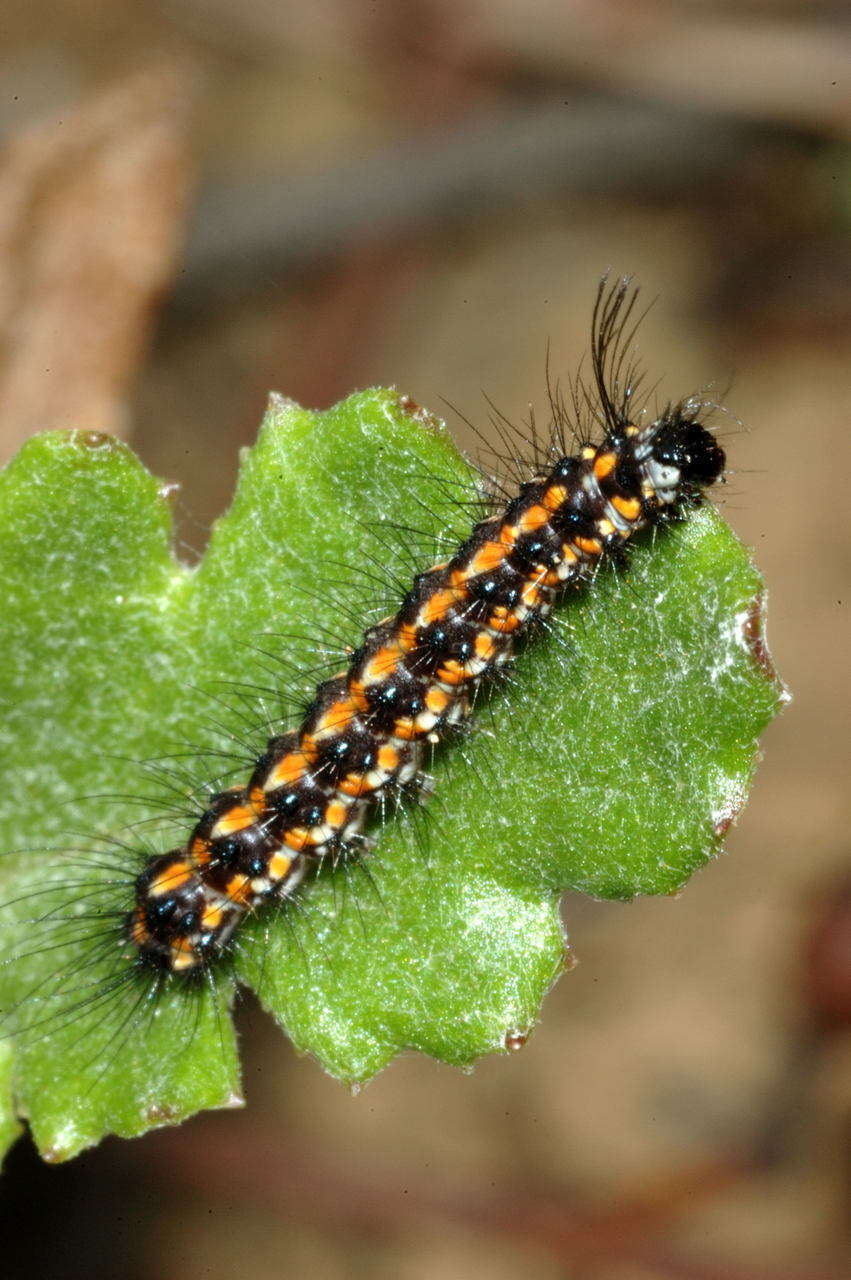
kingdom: Animalia
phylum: Arthropoda
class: Insecta
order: Lepidoptera
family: Erebidae
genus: Nyctemera
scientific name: Nyctemera amicus
